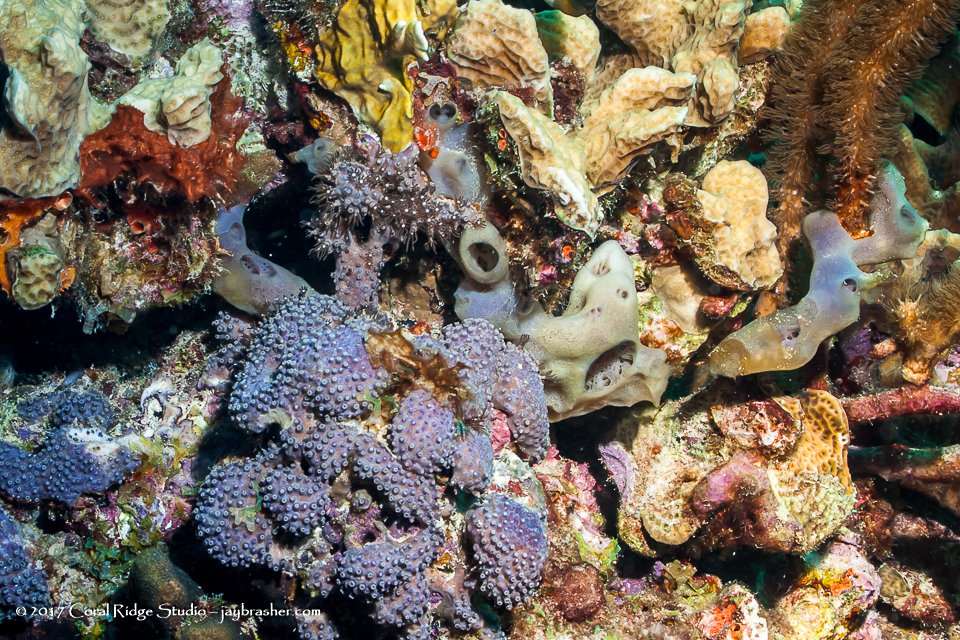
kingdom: Animalia
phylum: Porifera
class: Demospongiae
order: Haplosclerida
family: Callyspongiidae
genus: Callyspongia
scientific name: Callyspongia fallax
